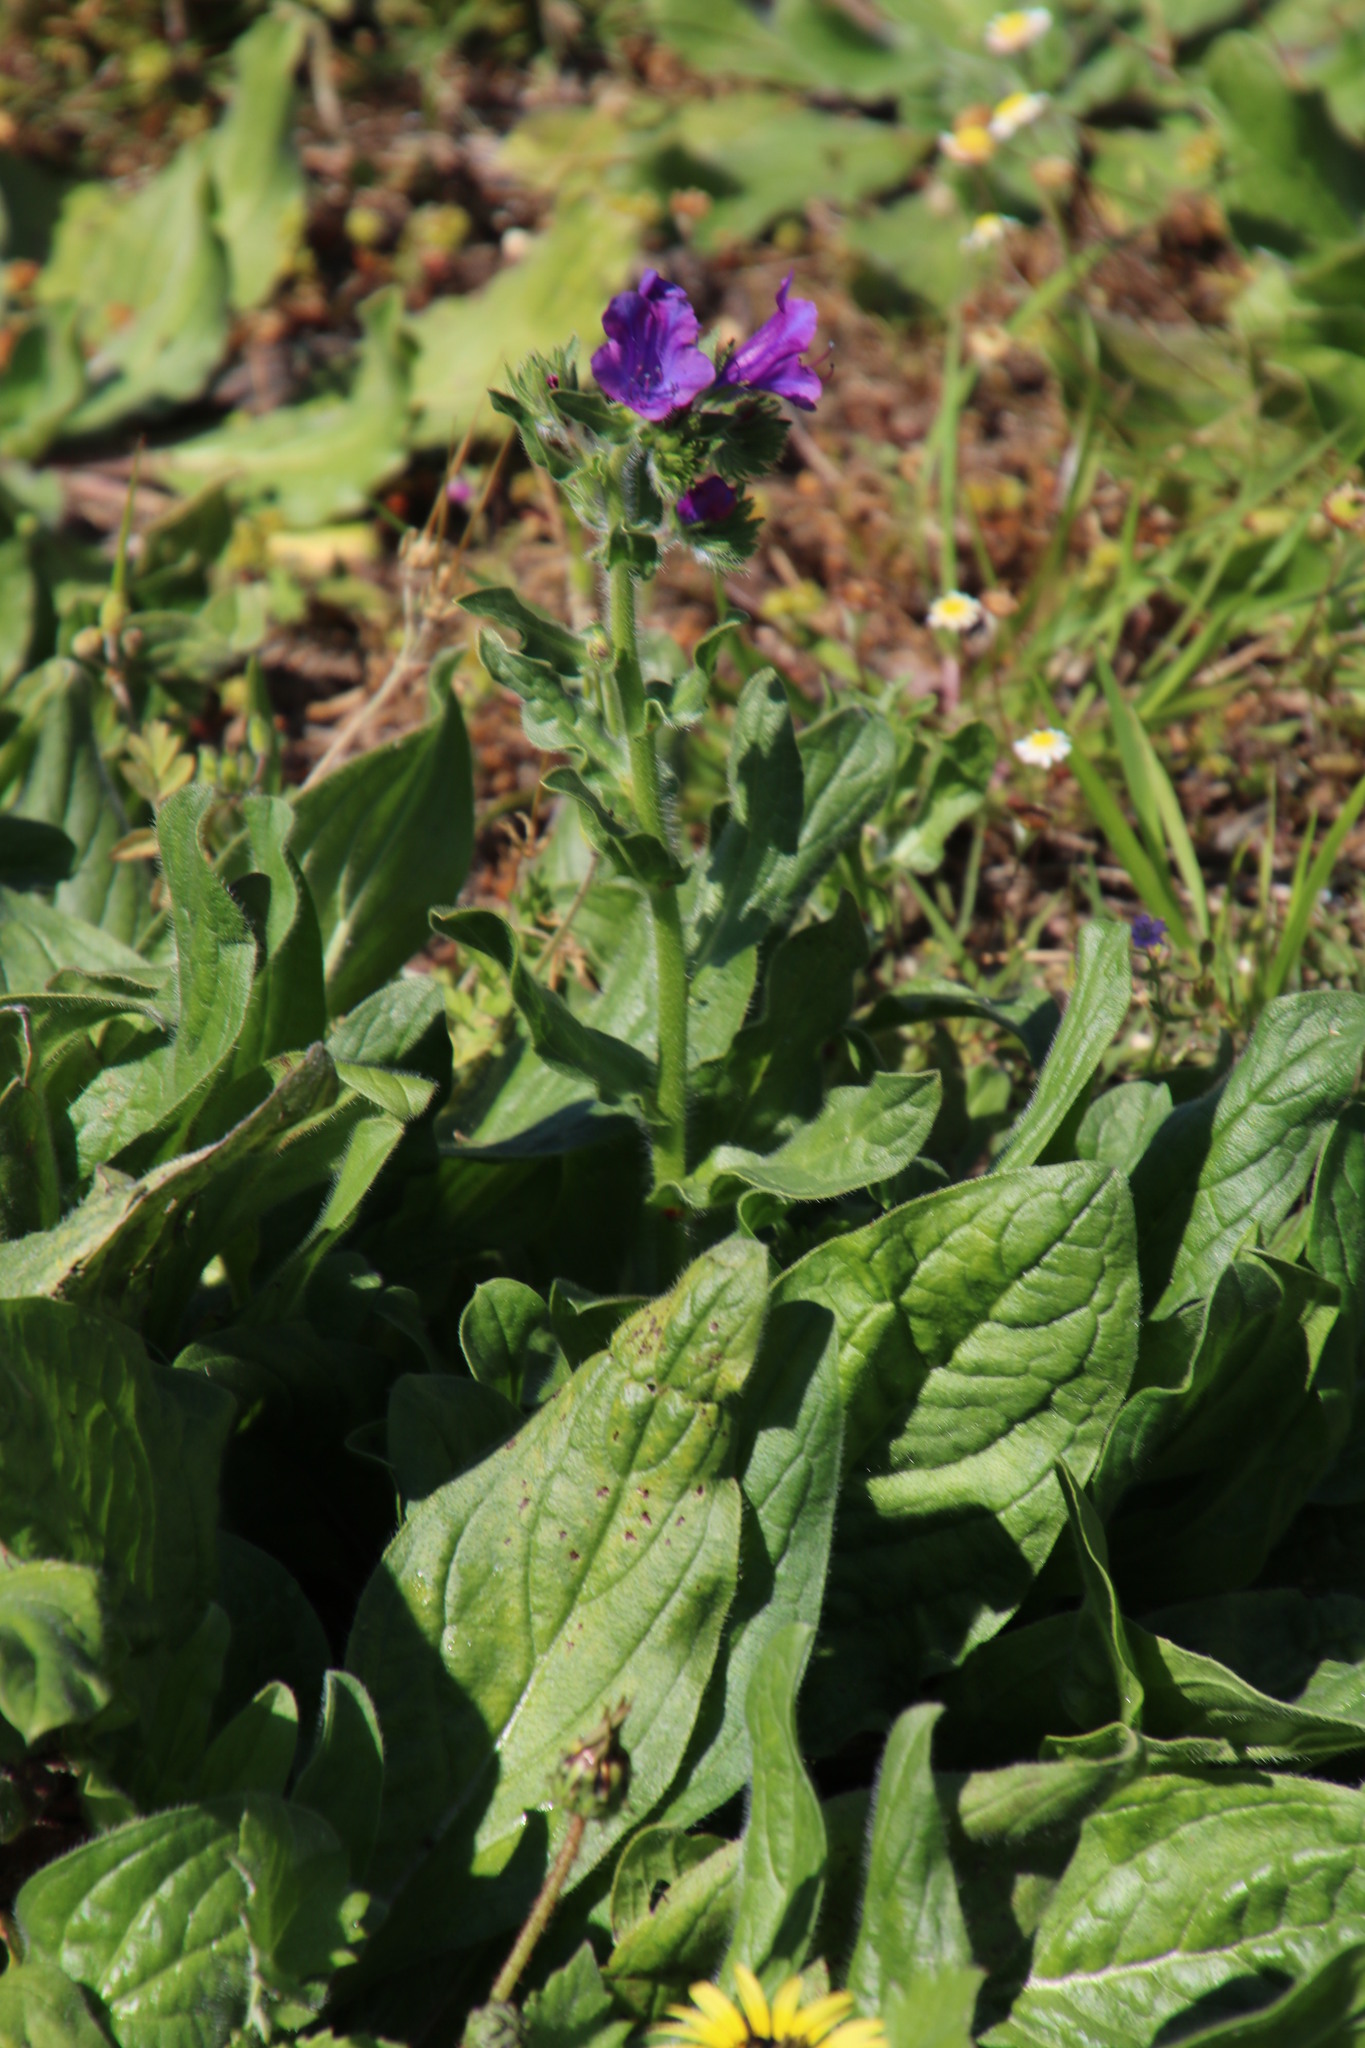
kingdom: Plantae
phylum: Tracheophyta
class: Magnoliopsida
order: Boraginales
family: Boraginaceae
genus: Echium
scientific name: Echium plantagineum
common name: Purple viper's-bugloss
